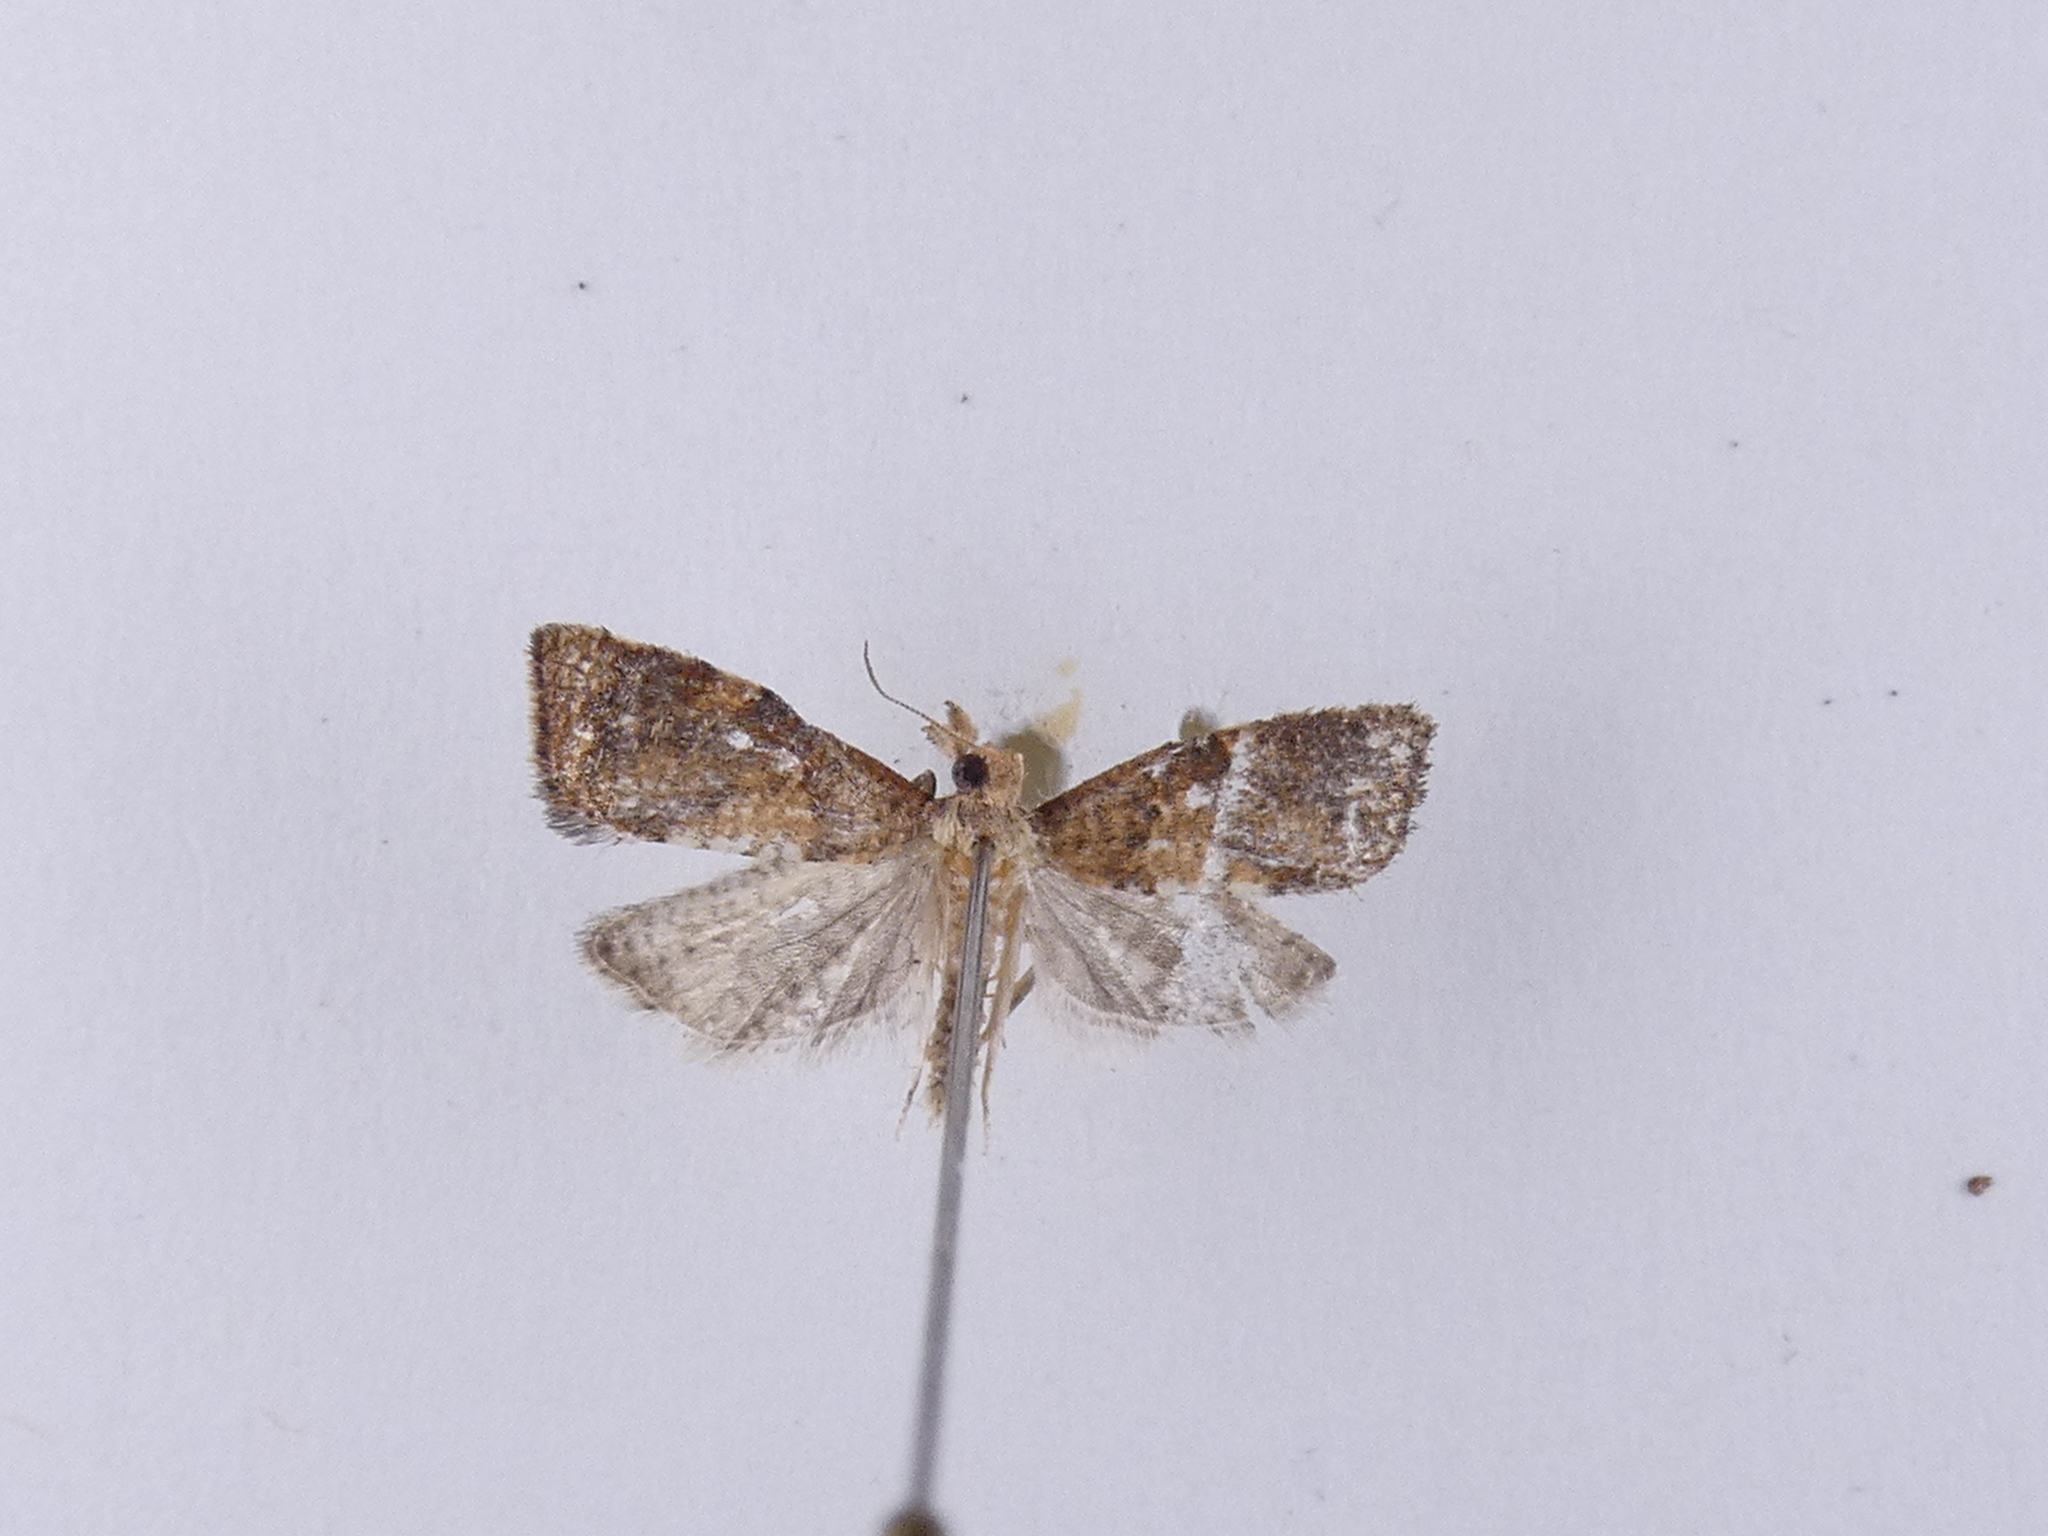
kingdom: Animalia
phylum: Arthropoda
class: Insecta
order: Lepidoptera
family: Tortricidae
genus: Catamacta
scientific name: Catamacta gavisana
